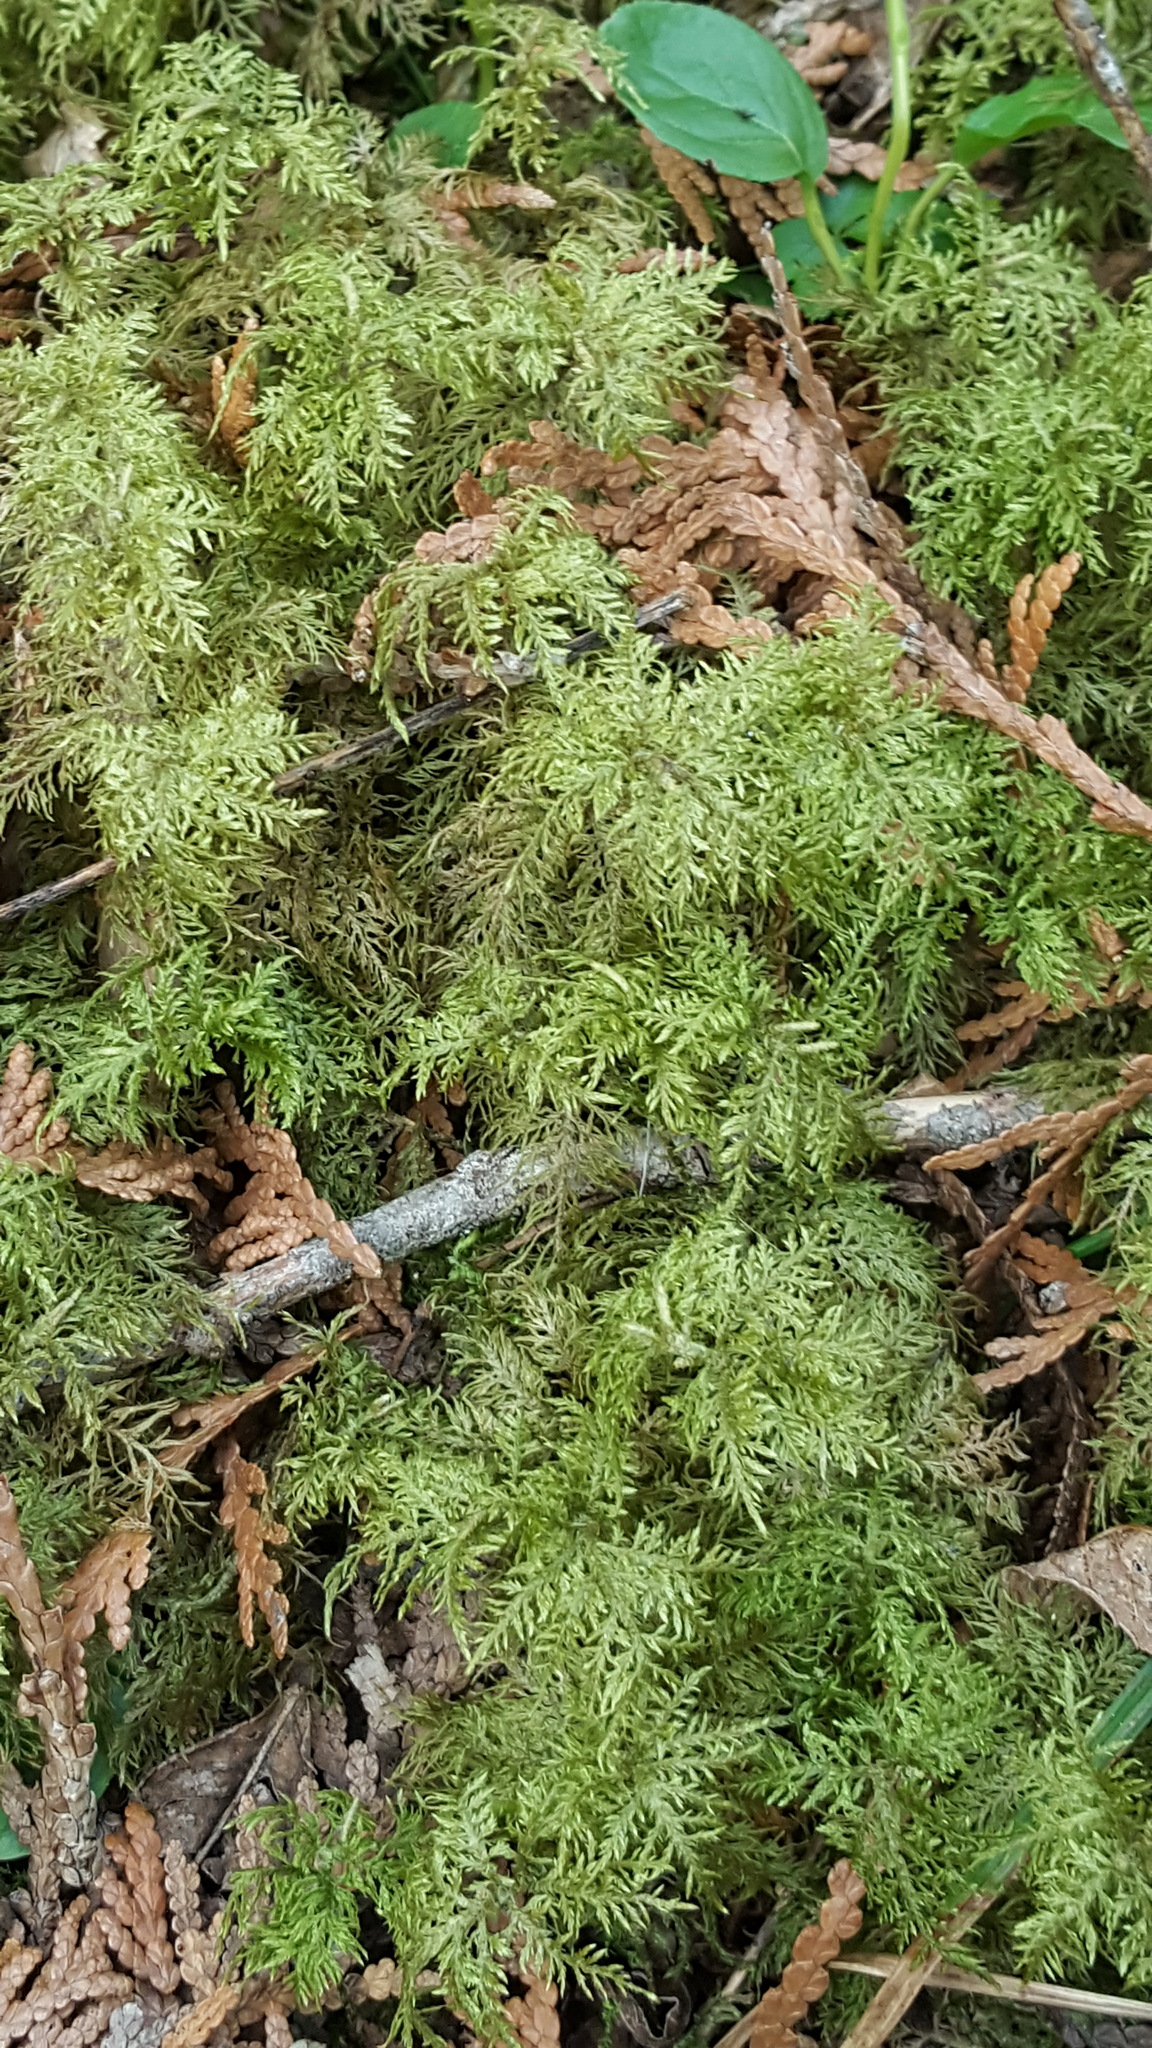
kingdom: Plantae
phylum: Bryophyta
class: Bryopsida
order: Hypnales
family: Hylocomiaceae
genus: Hylocomium
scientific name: Hylocomium splendens
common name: Stairstep moss
